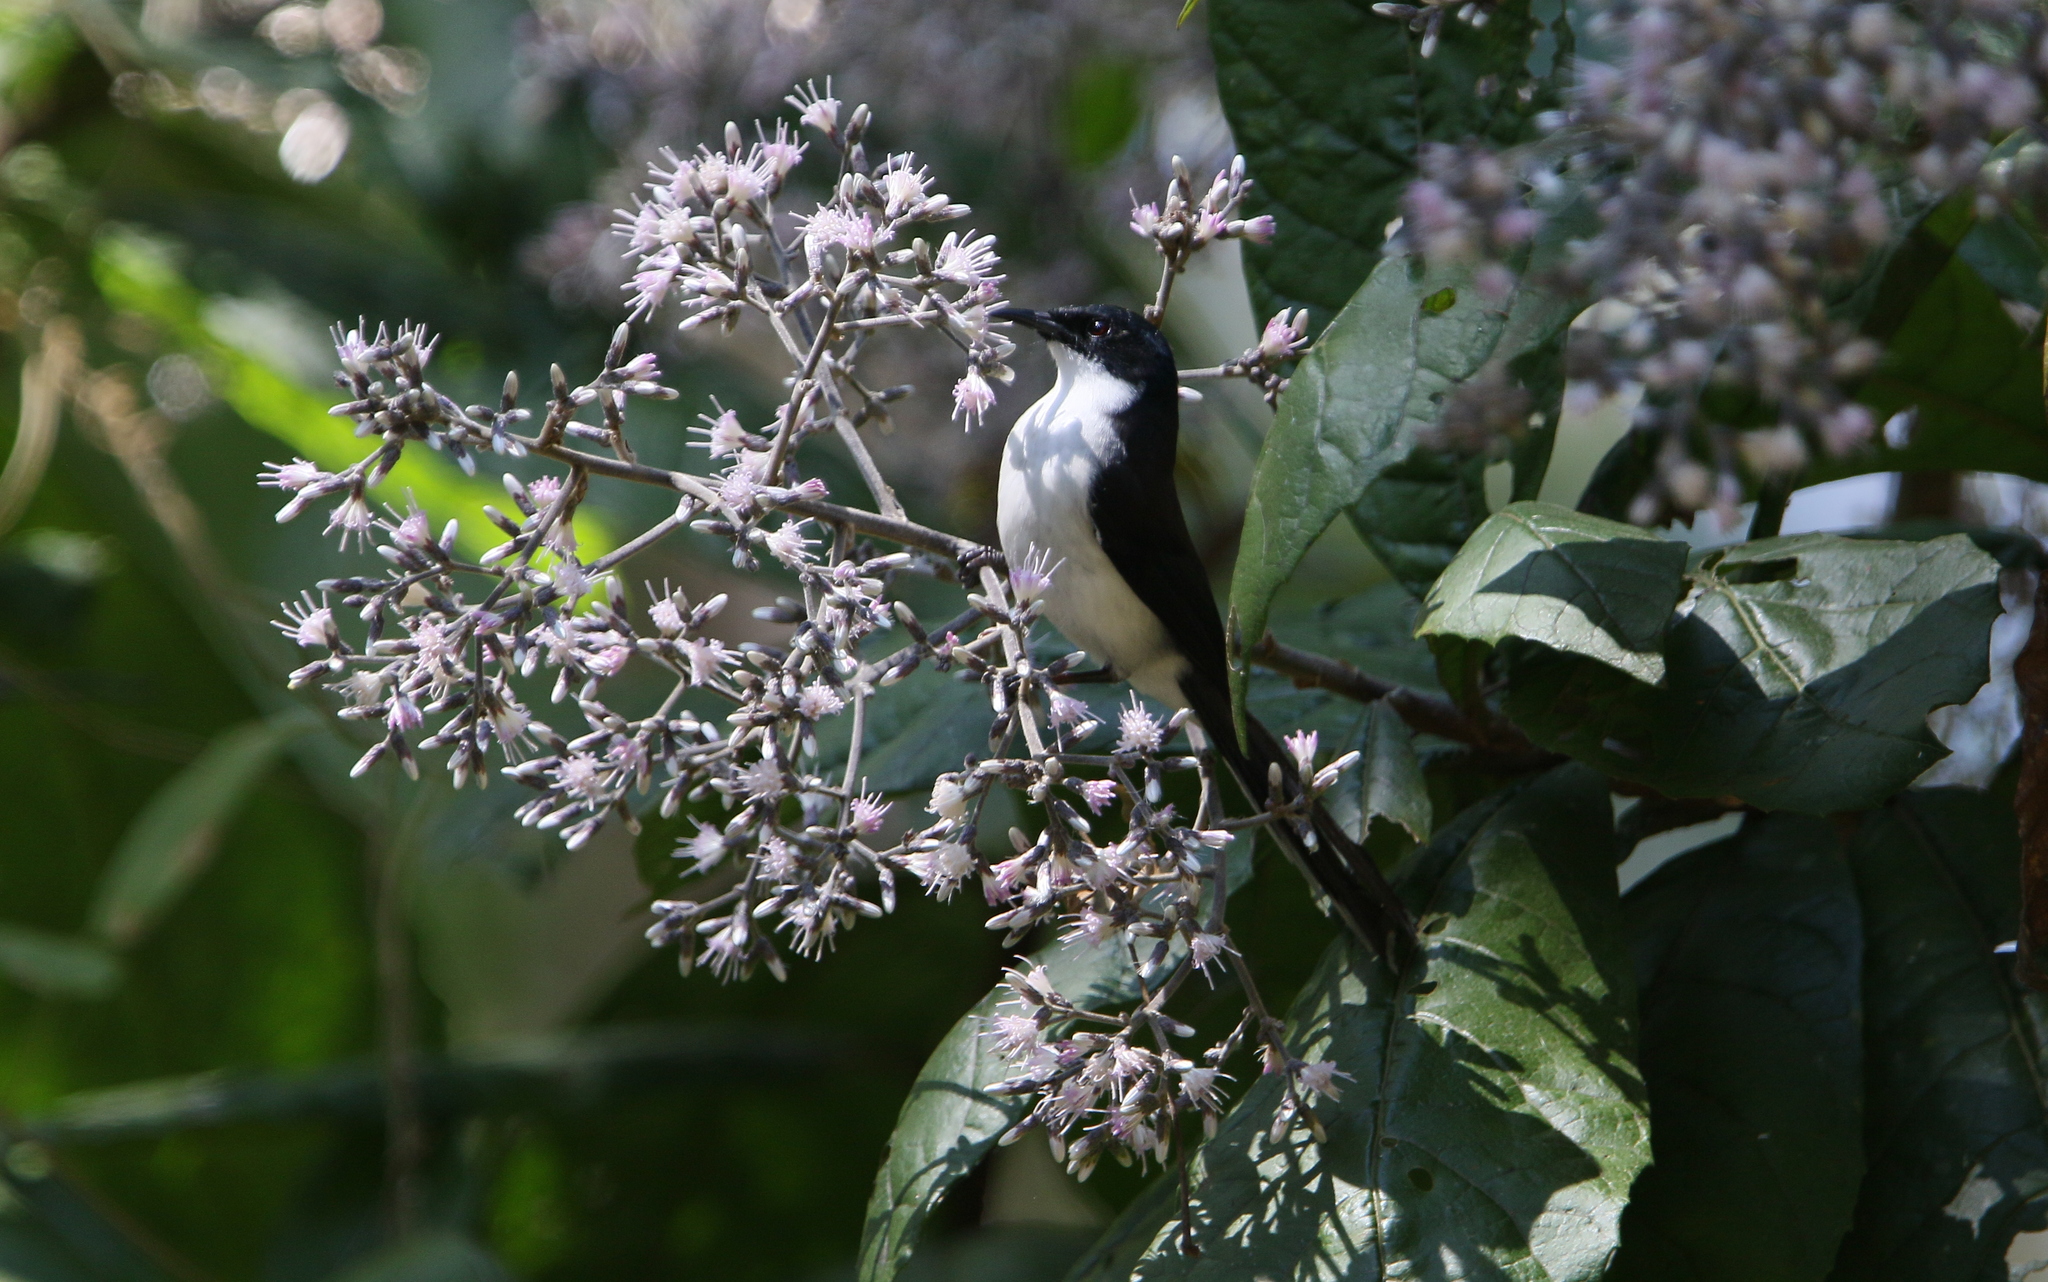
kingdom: Animalia
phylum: Chordata
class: Aves
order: Passeriformes
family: Leiothrichidae
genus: Heterophasia
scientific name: Heterophasia melanoleuca
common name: Dark-backed sibia
